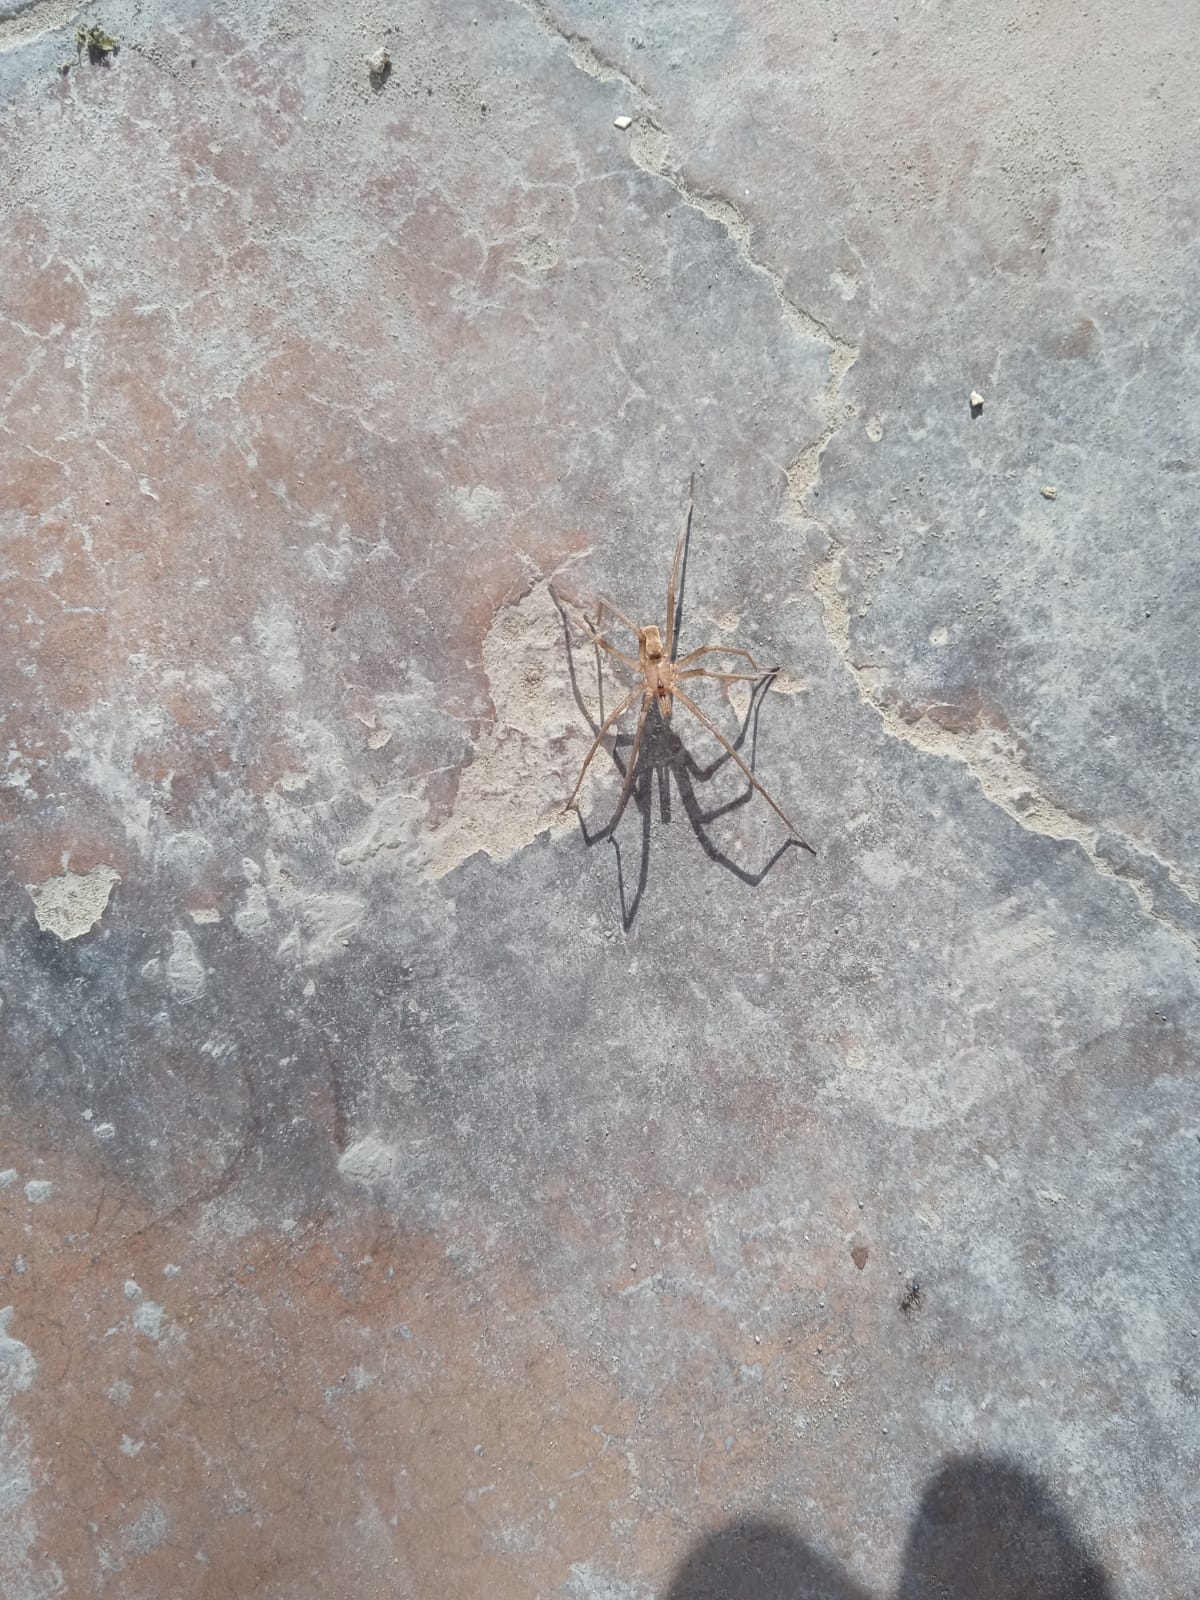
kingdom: Animalia
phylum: Arthropoda
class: Arachnida
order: Araneae
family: Filistatidae
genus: Kukulcania
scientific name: Kukulcania santosi
